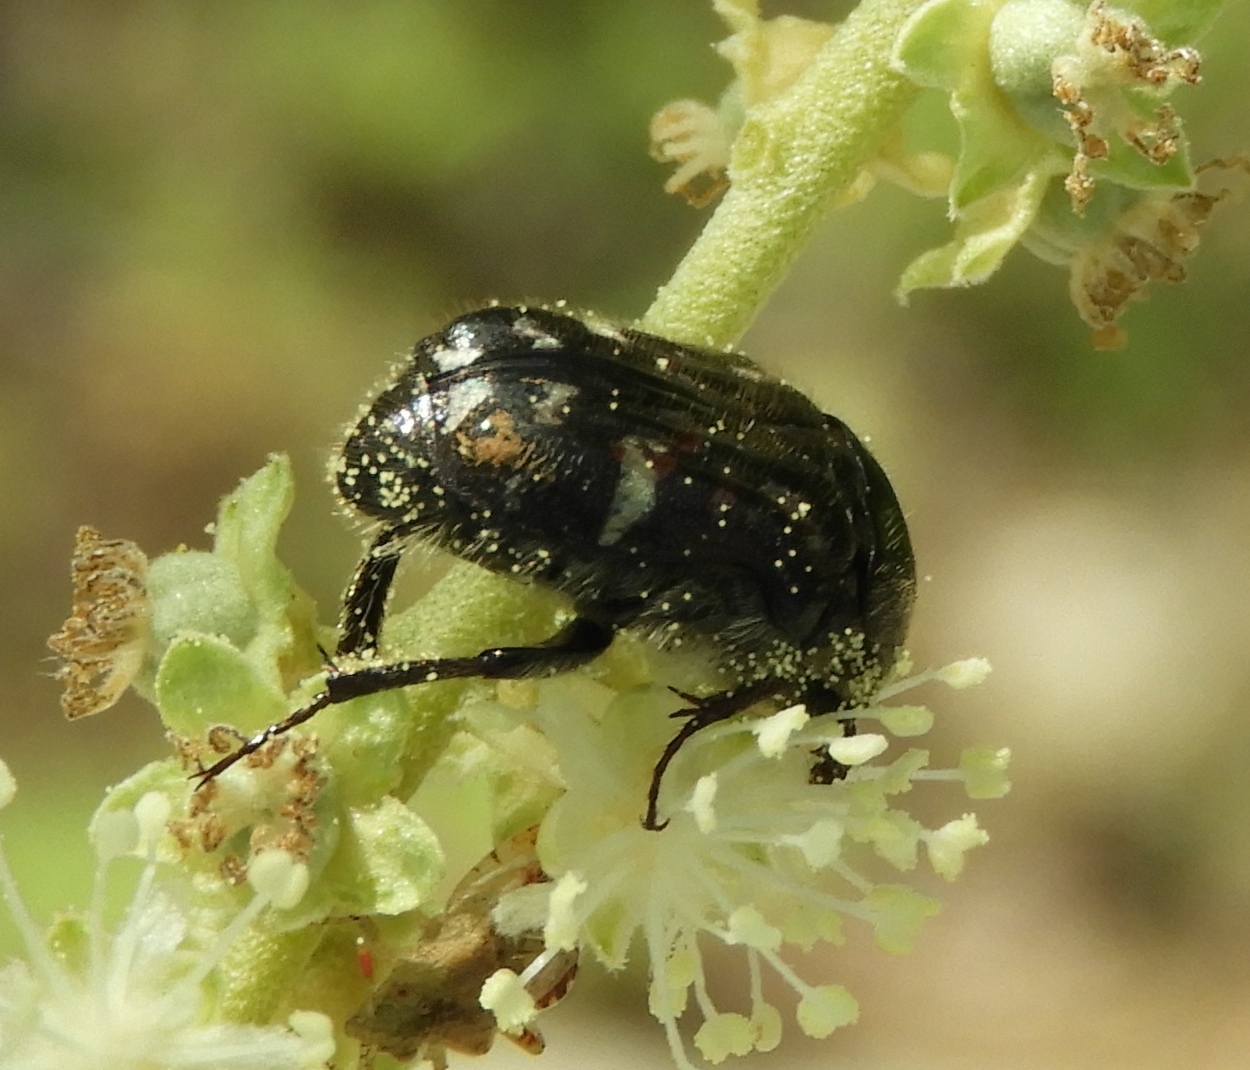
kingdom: Animalia
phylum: Arthropoda
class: Insecta
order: Coleoptera
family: Scarabaeidae
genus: Euphoria
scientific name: Euphoria pulchella
